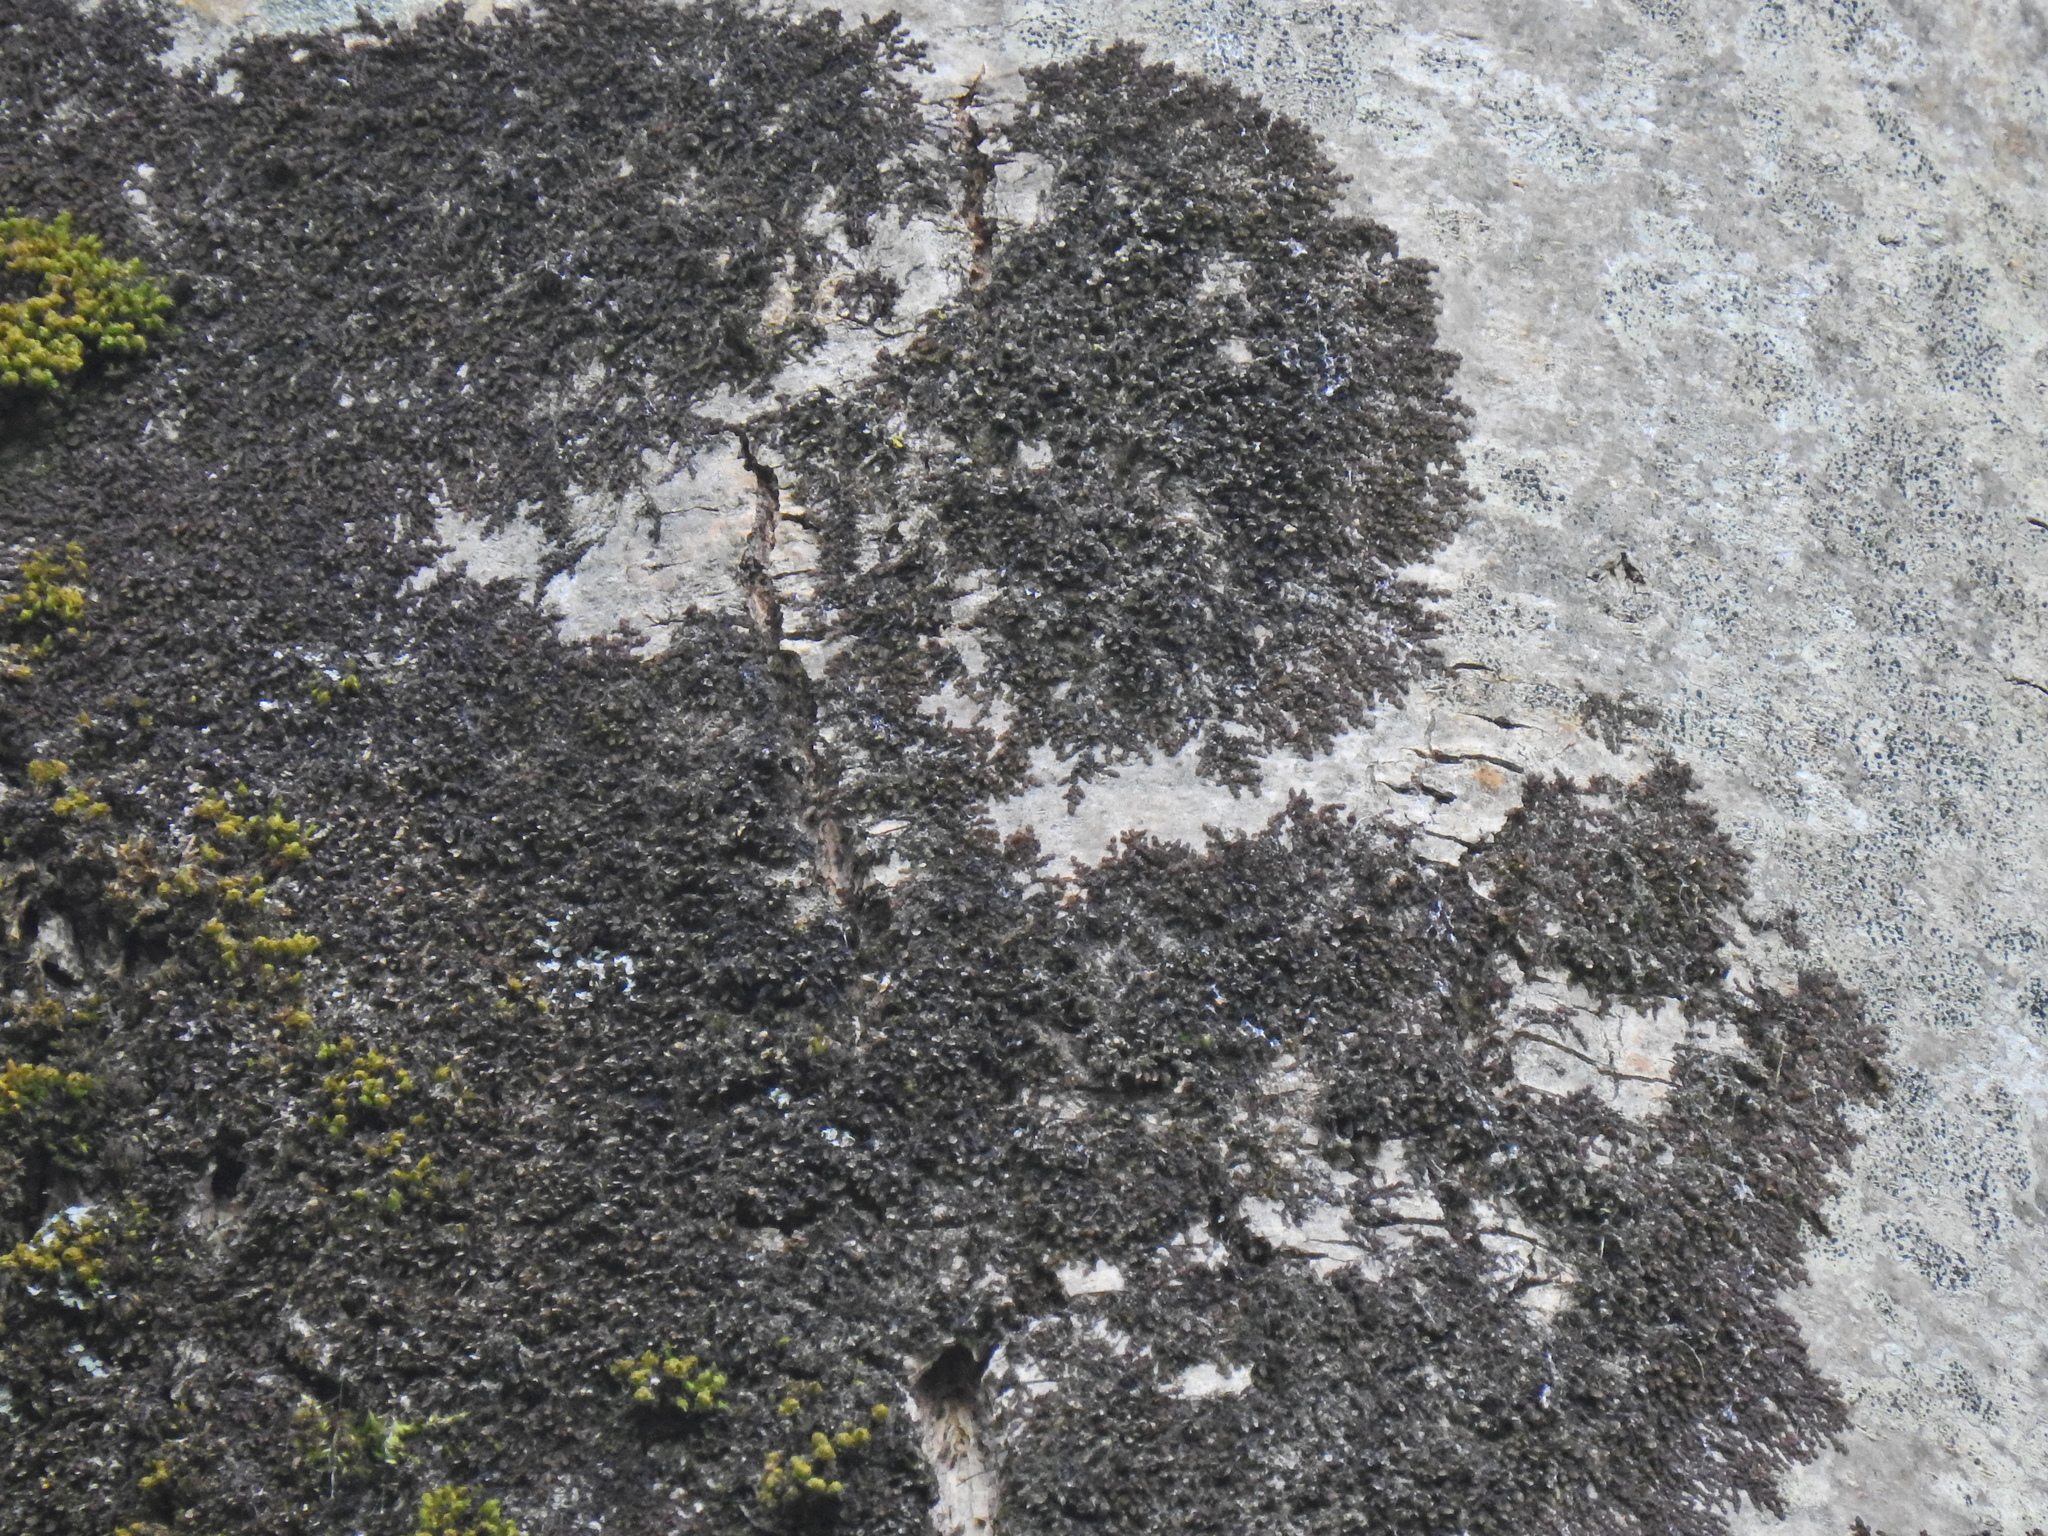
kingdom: Plantae
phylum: Marchantiophyta
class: Jungermanniopsida
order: Porellales
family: Frullaniaceae
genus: Frullania
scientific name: Frullania dilatata
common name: Dilated scalewort
